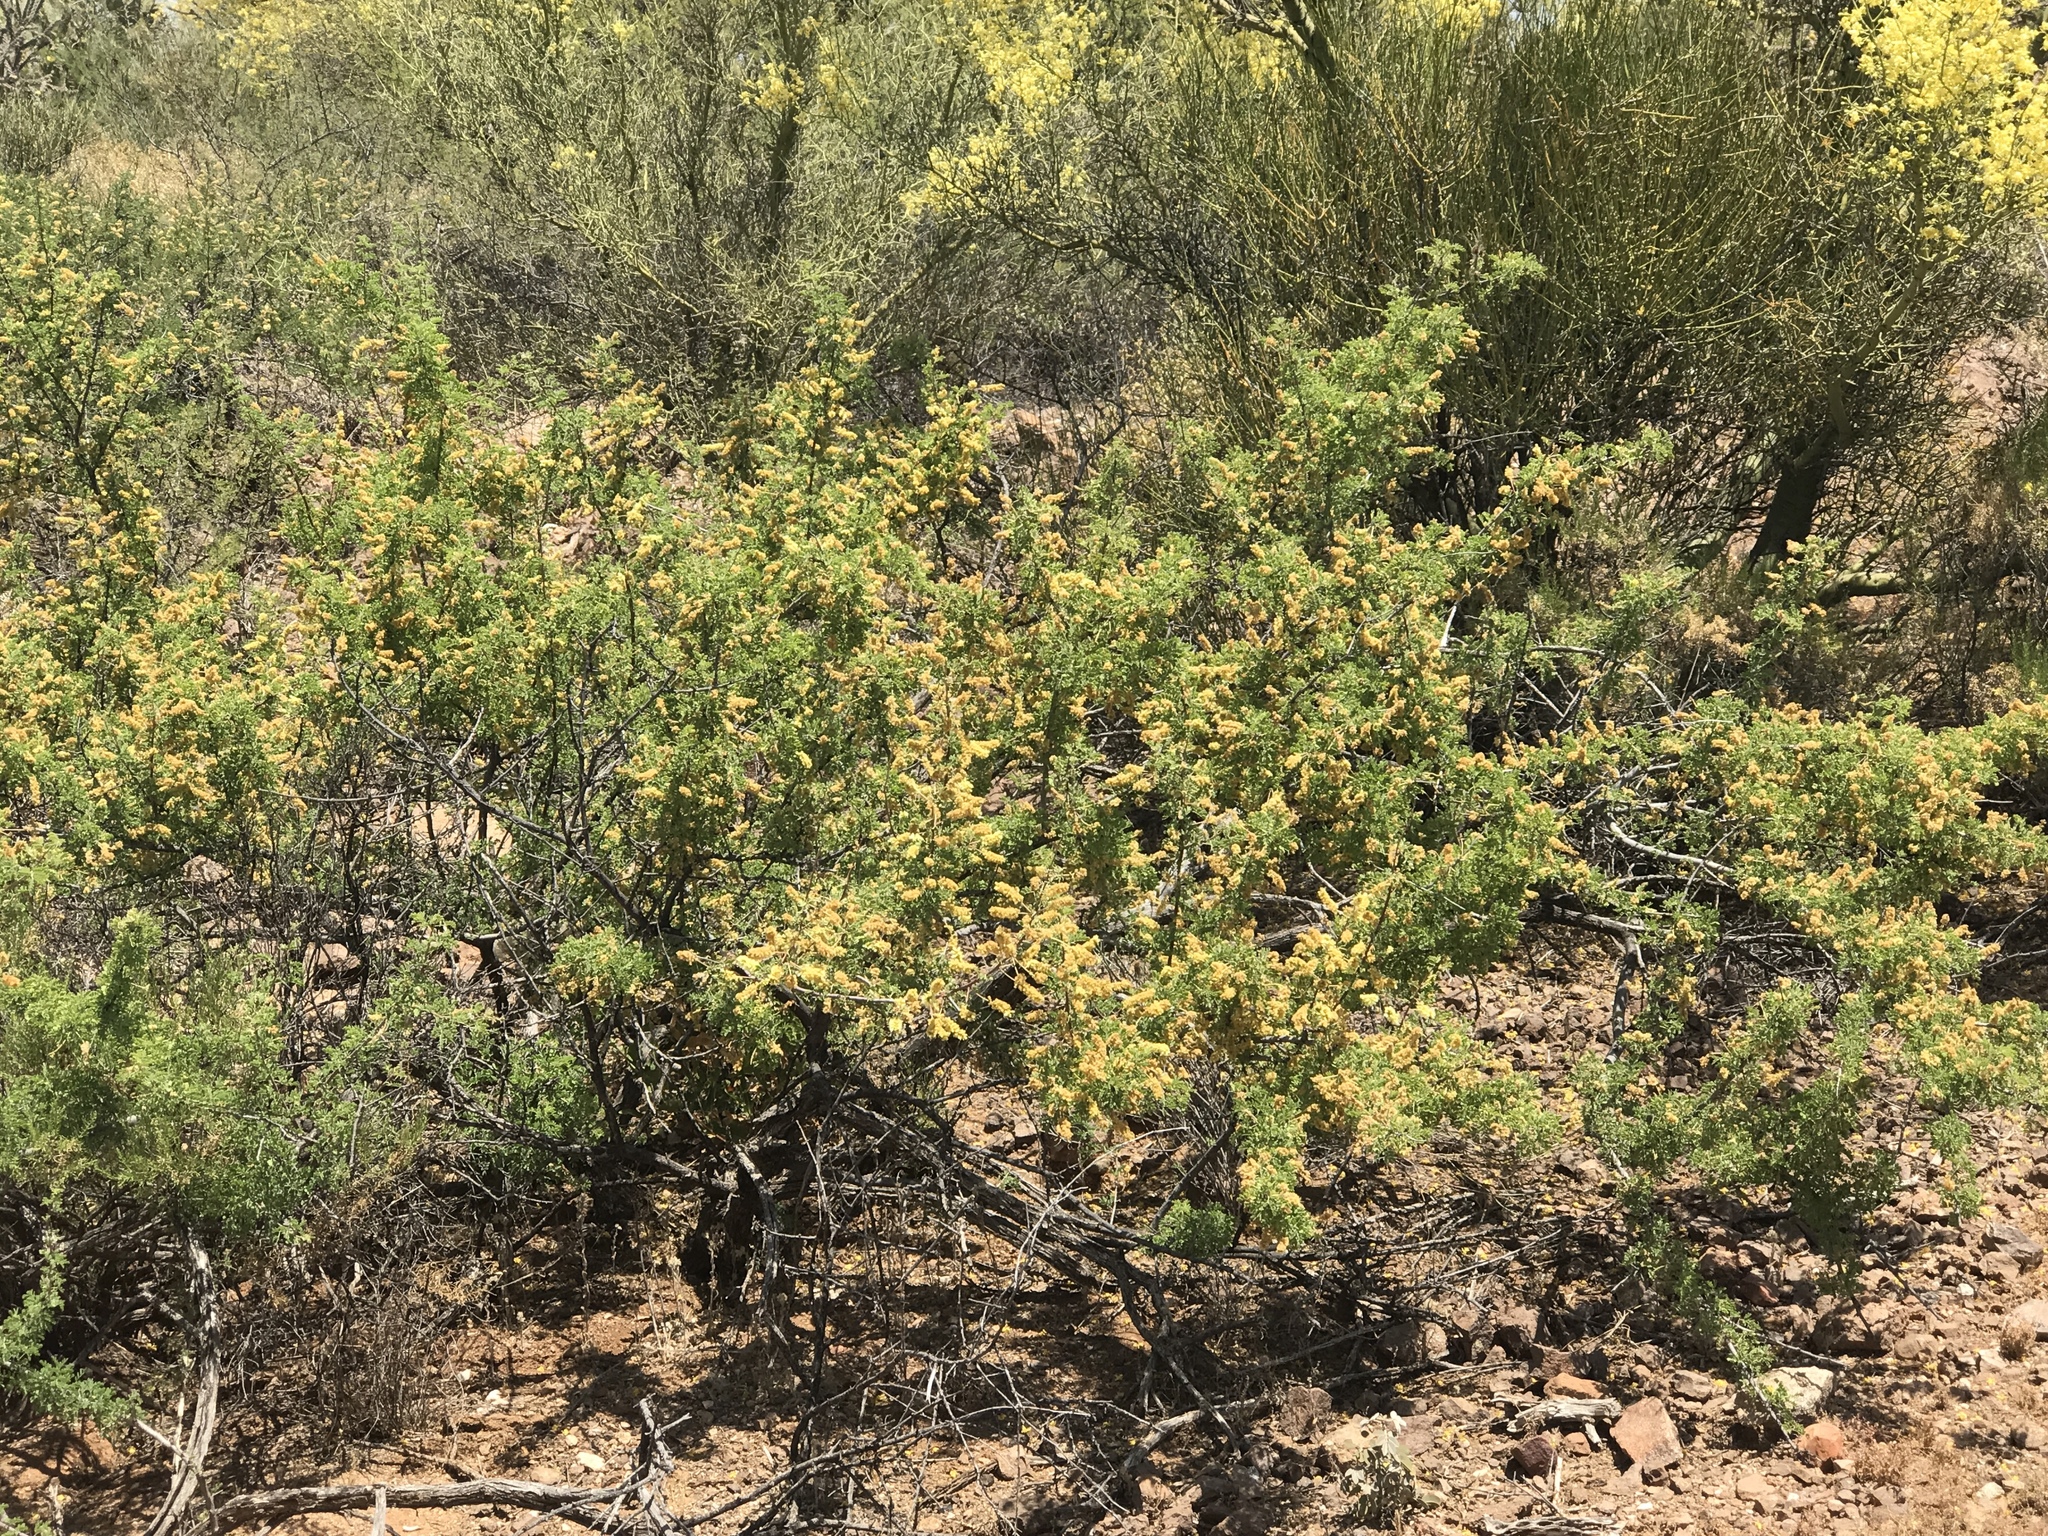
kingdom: Plantae
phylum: Tracheophyta
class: Magnoliopsida
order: Fabales
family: Fabaceae
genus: Senegalia
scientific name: Senegalia greggii
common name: Texas-mimosa
